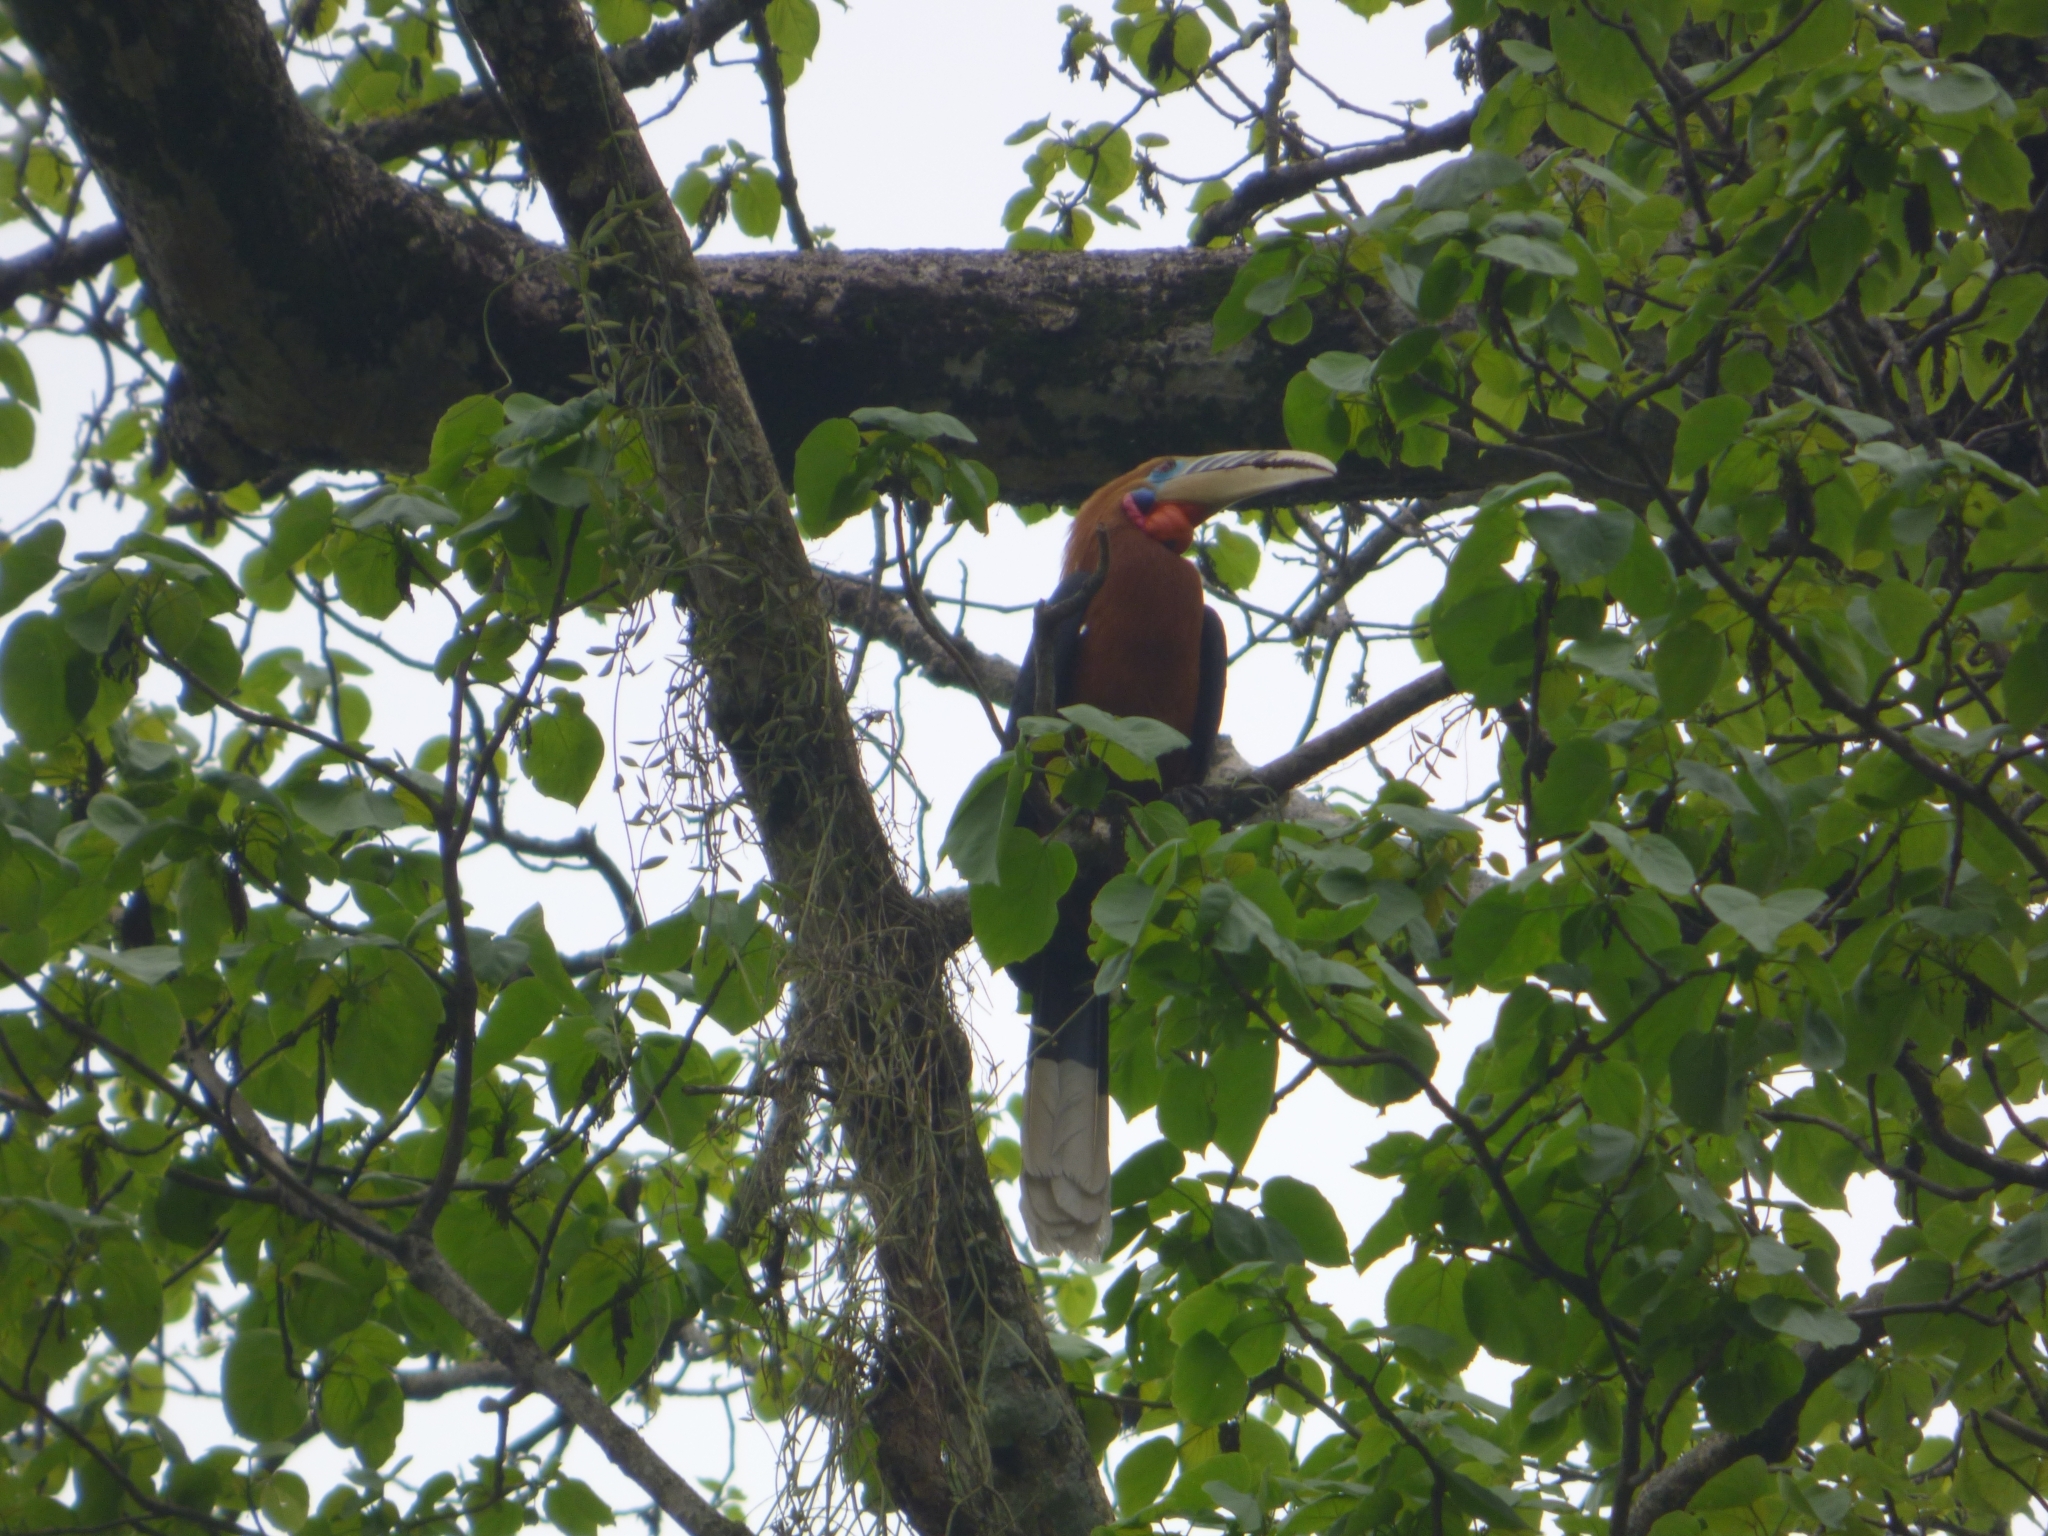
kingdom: Animalia
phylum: Chordata
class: Aves
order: Bucerotiformes
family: Bucerotidae
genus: Aceros
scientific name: Aceros nipalensis
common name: Rufous-necked hornbill
